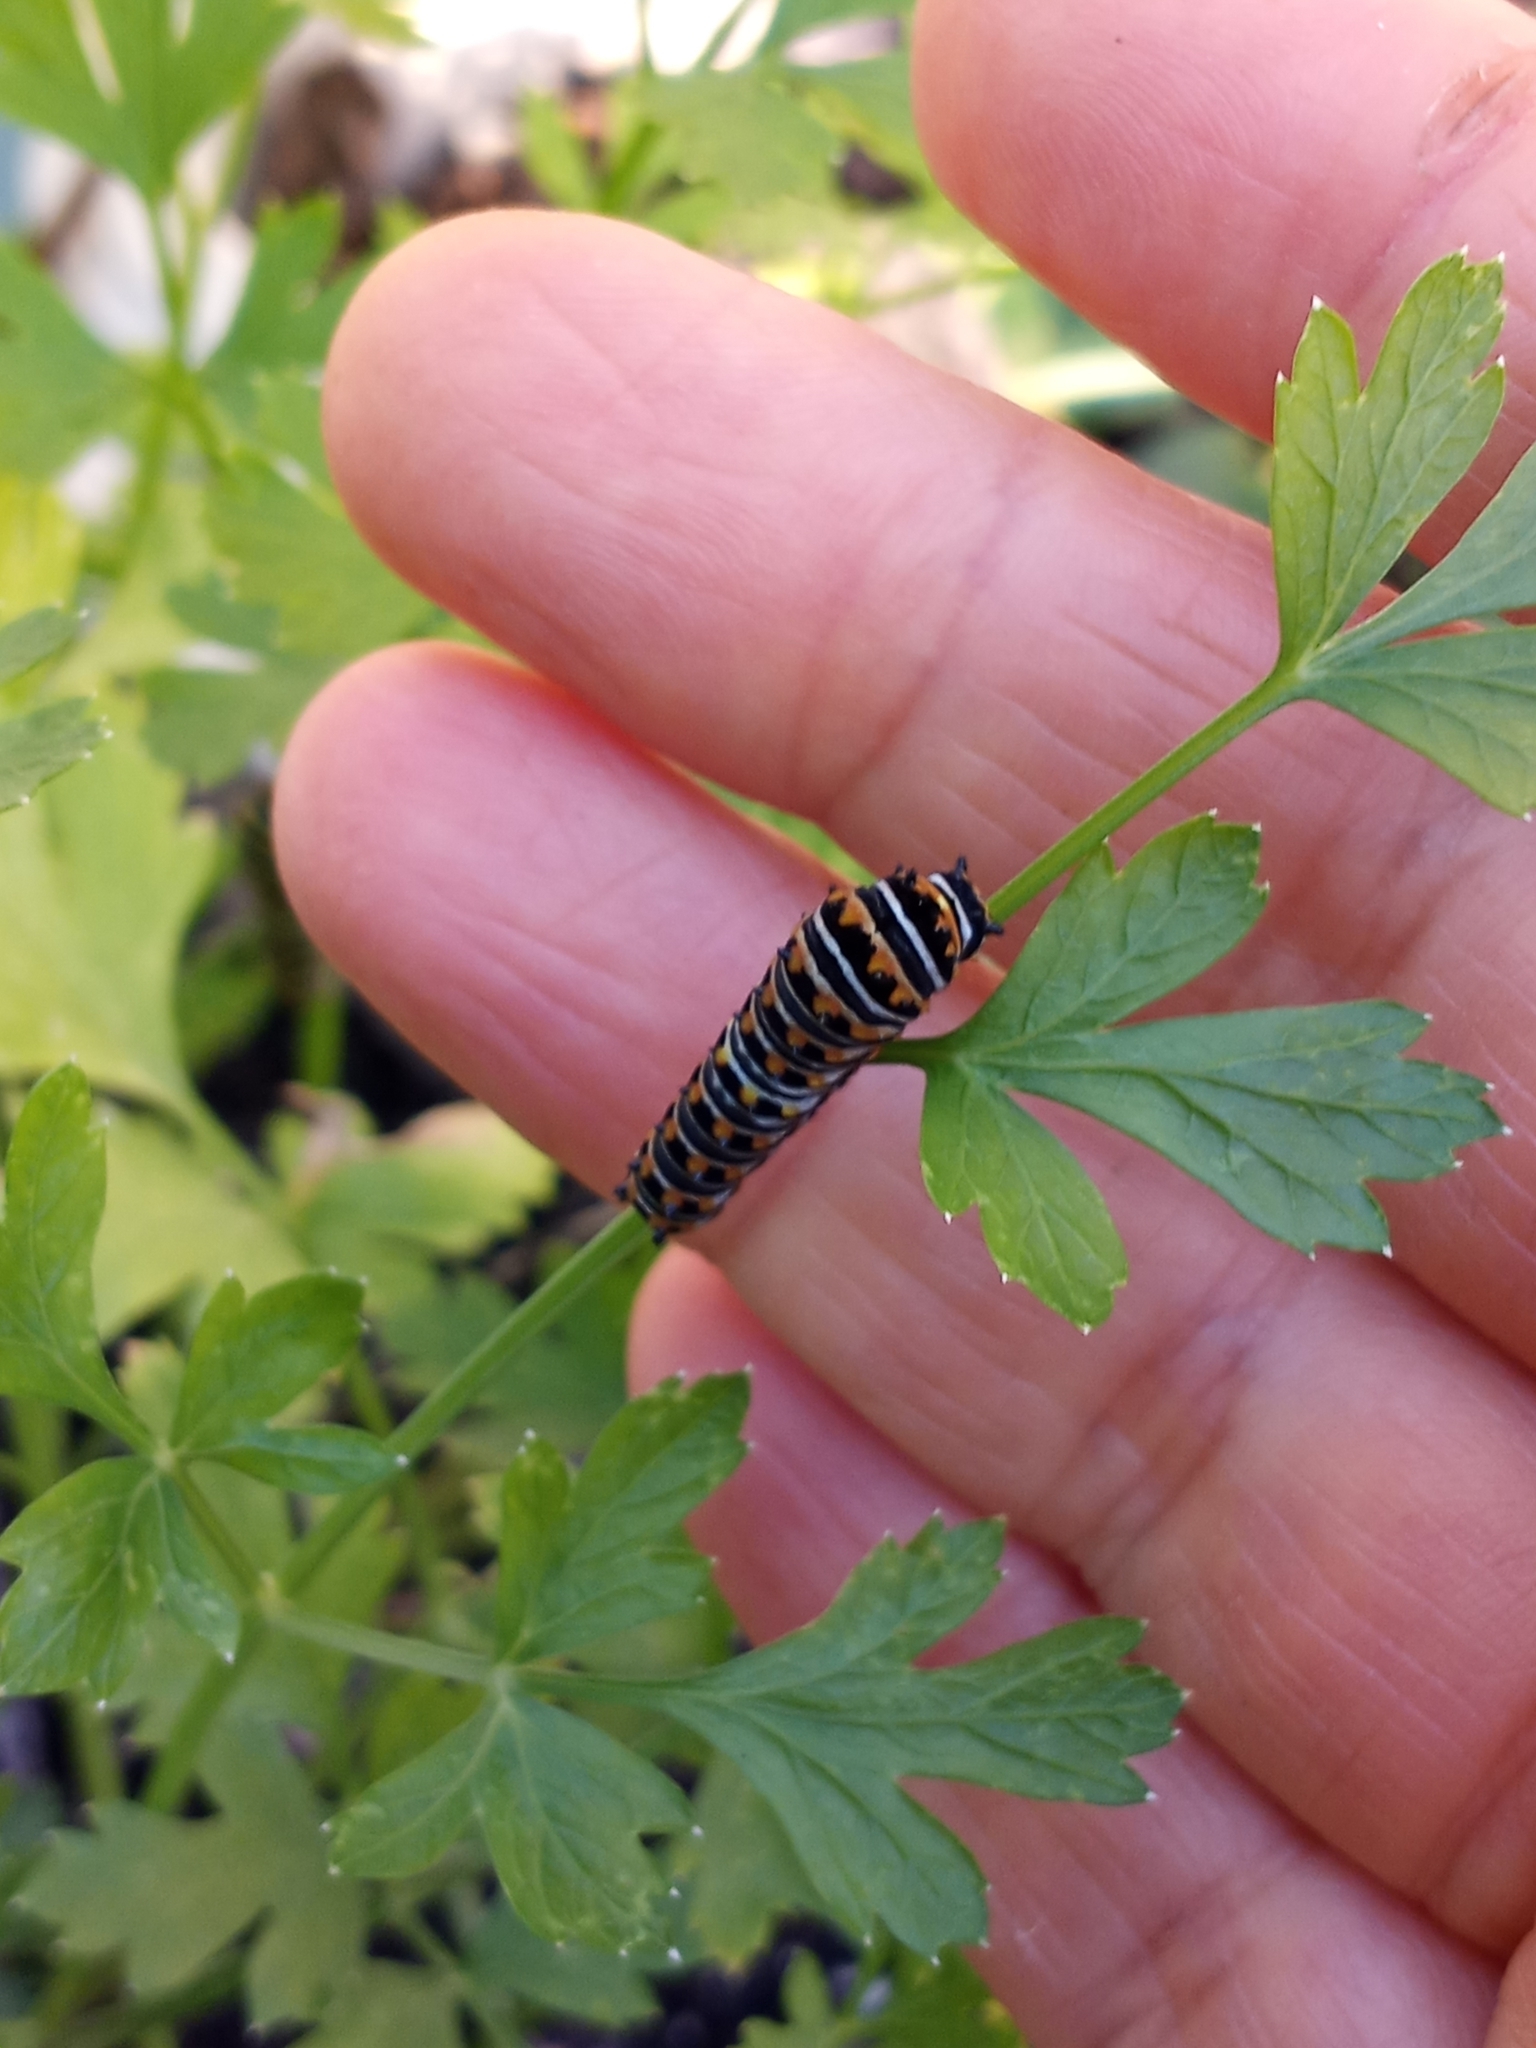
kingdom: Animalia
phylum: Arthropoda
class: Insecta
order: Lepidoptera
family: Papilionidae
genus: Papilio
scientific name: Papilio polyxenes
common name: Black swallowtail
